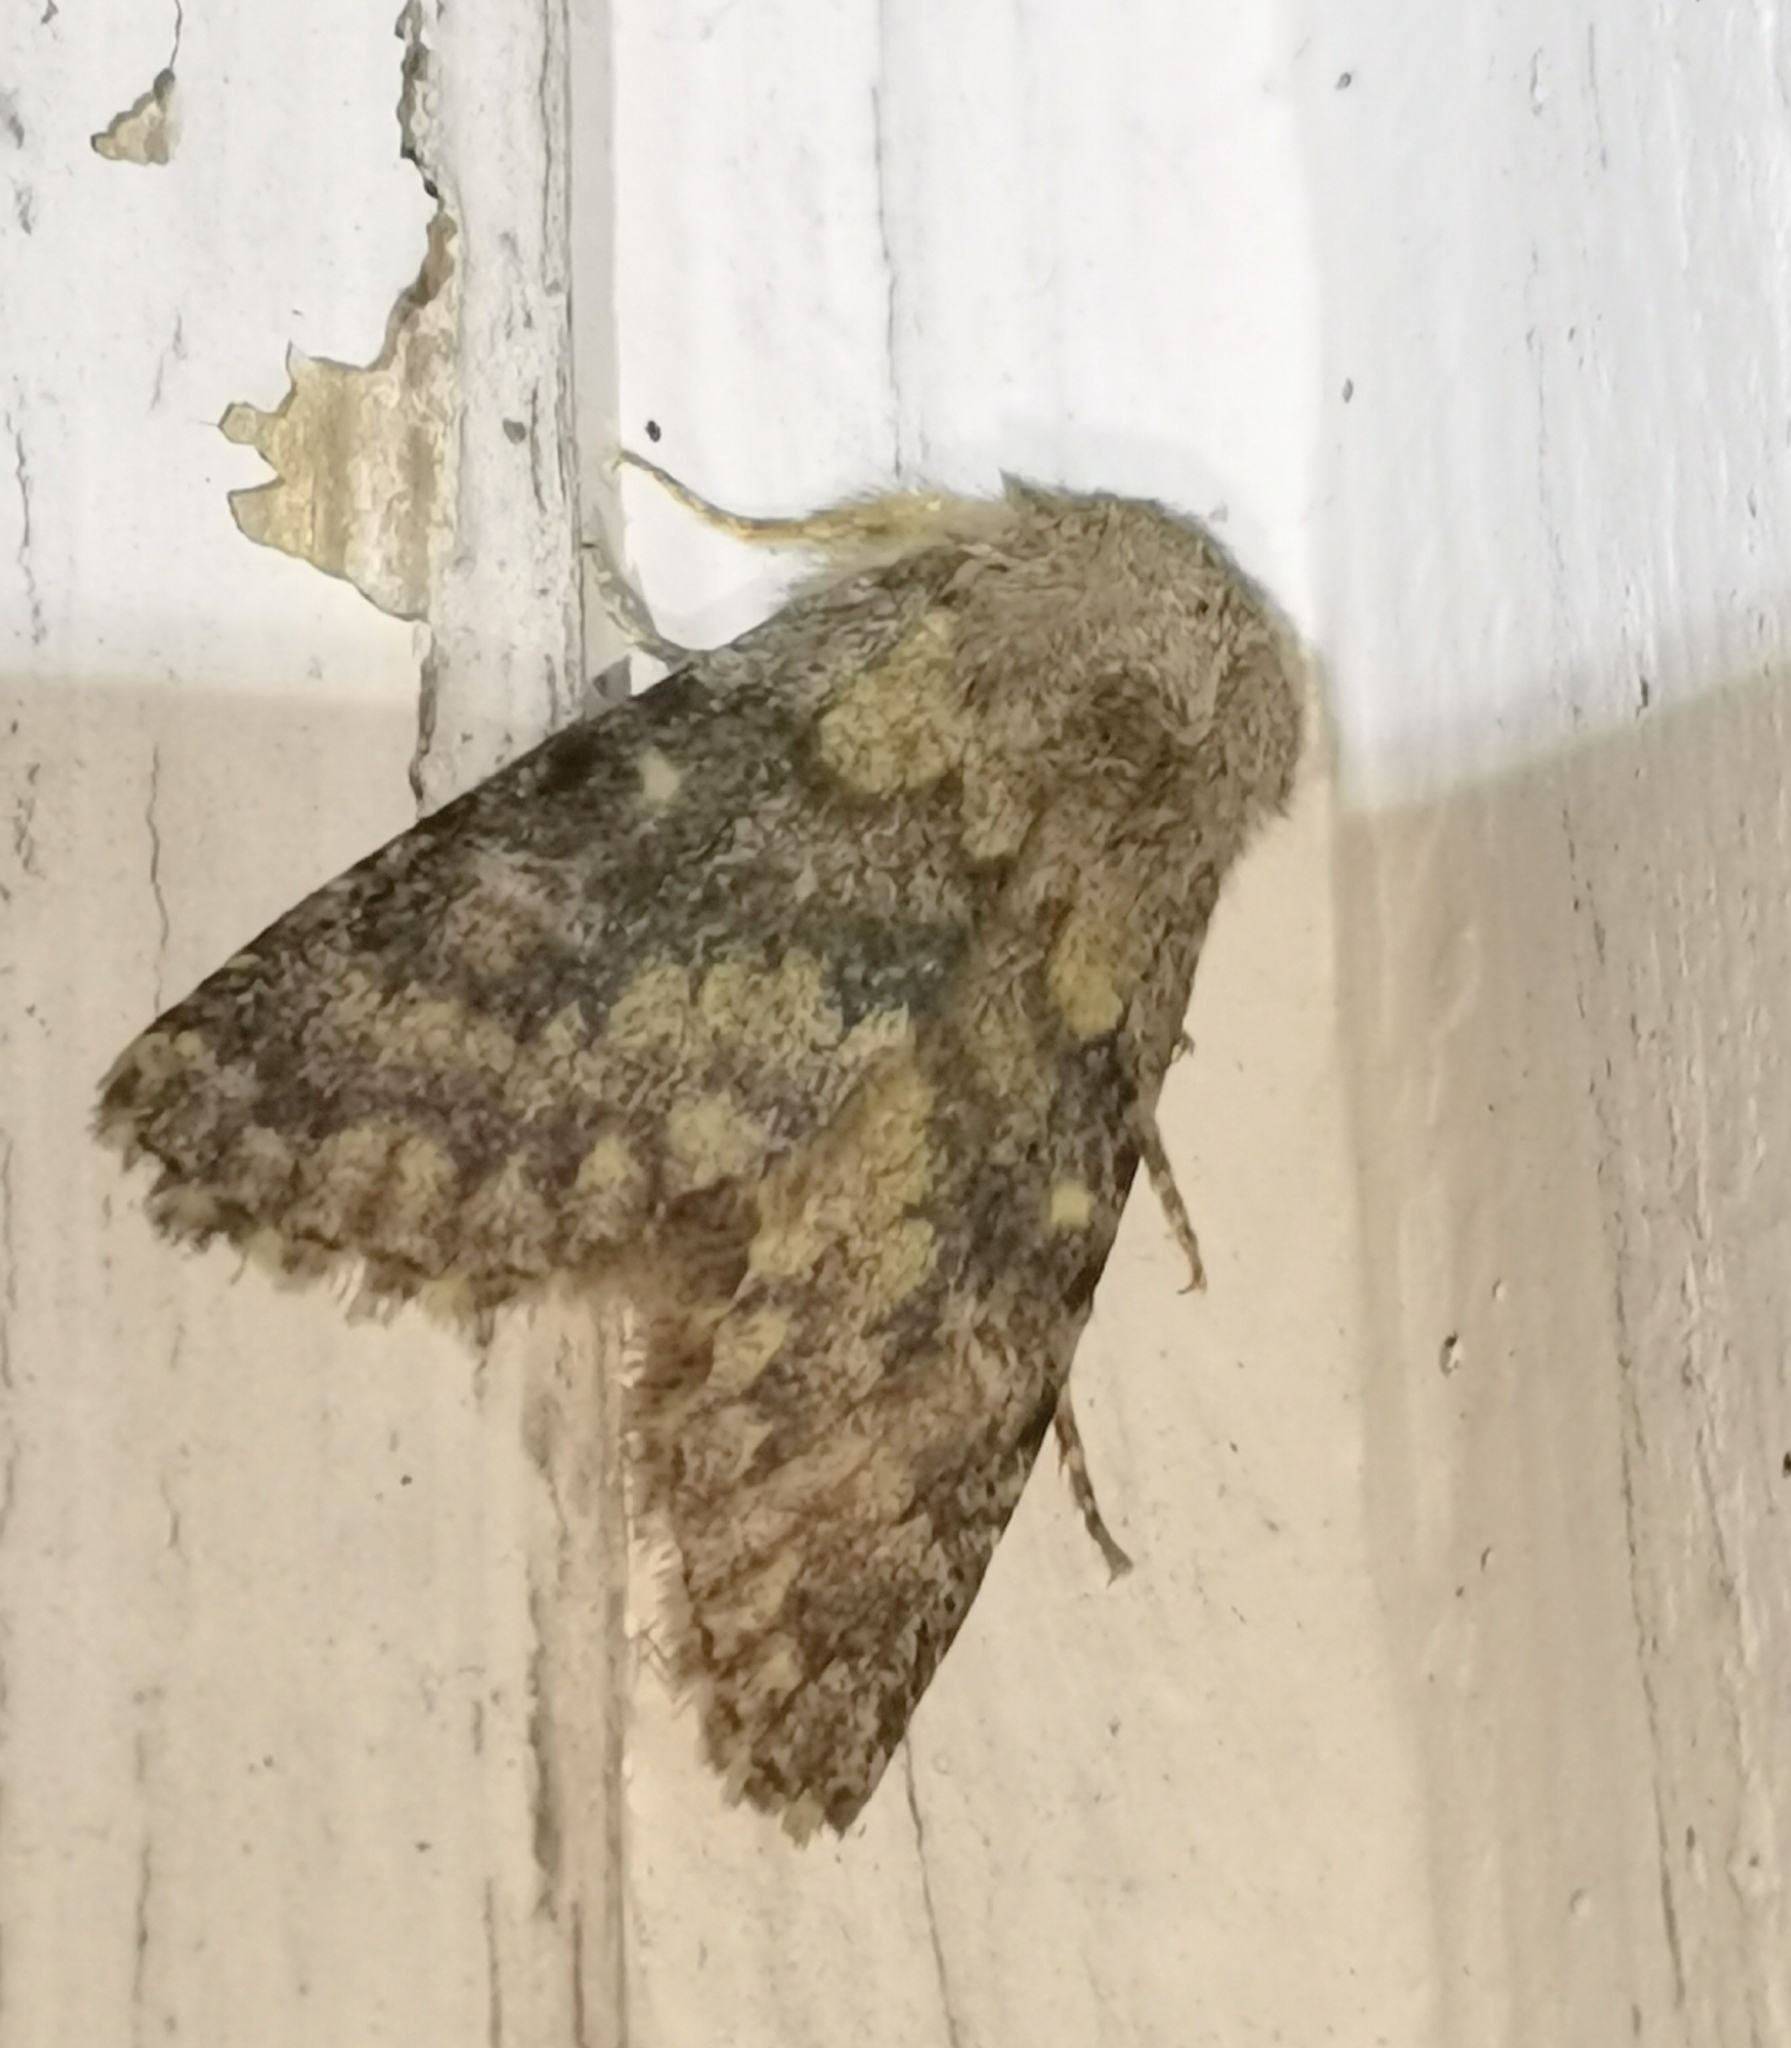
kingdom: Animalia
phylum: Arthropoda
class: Insecta
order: Lepidoptera
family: Noctuidae
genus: Dasypolia
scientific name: Dasypolia templi
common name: Brindled ochre
